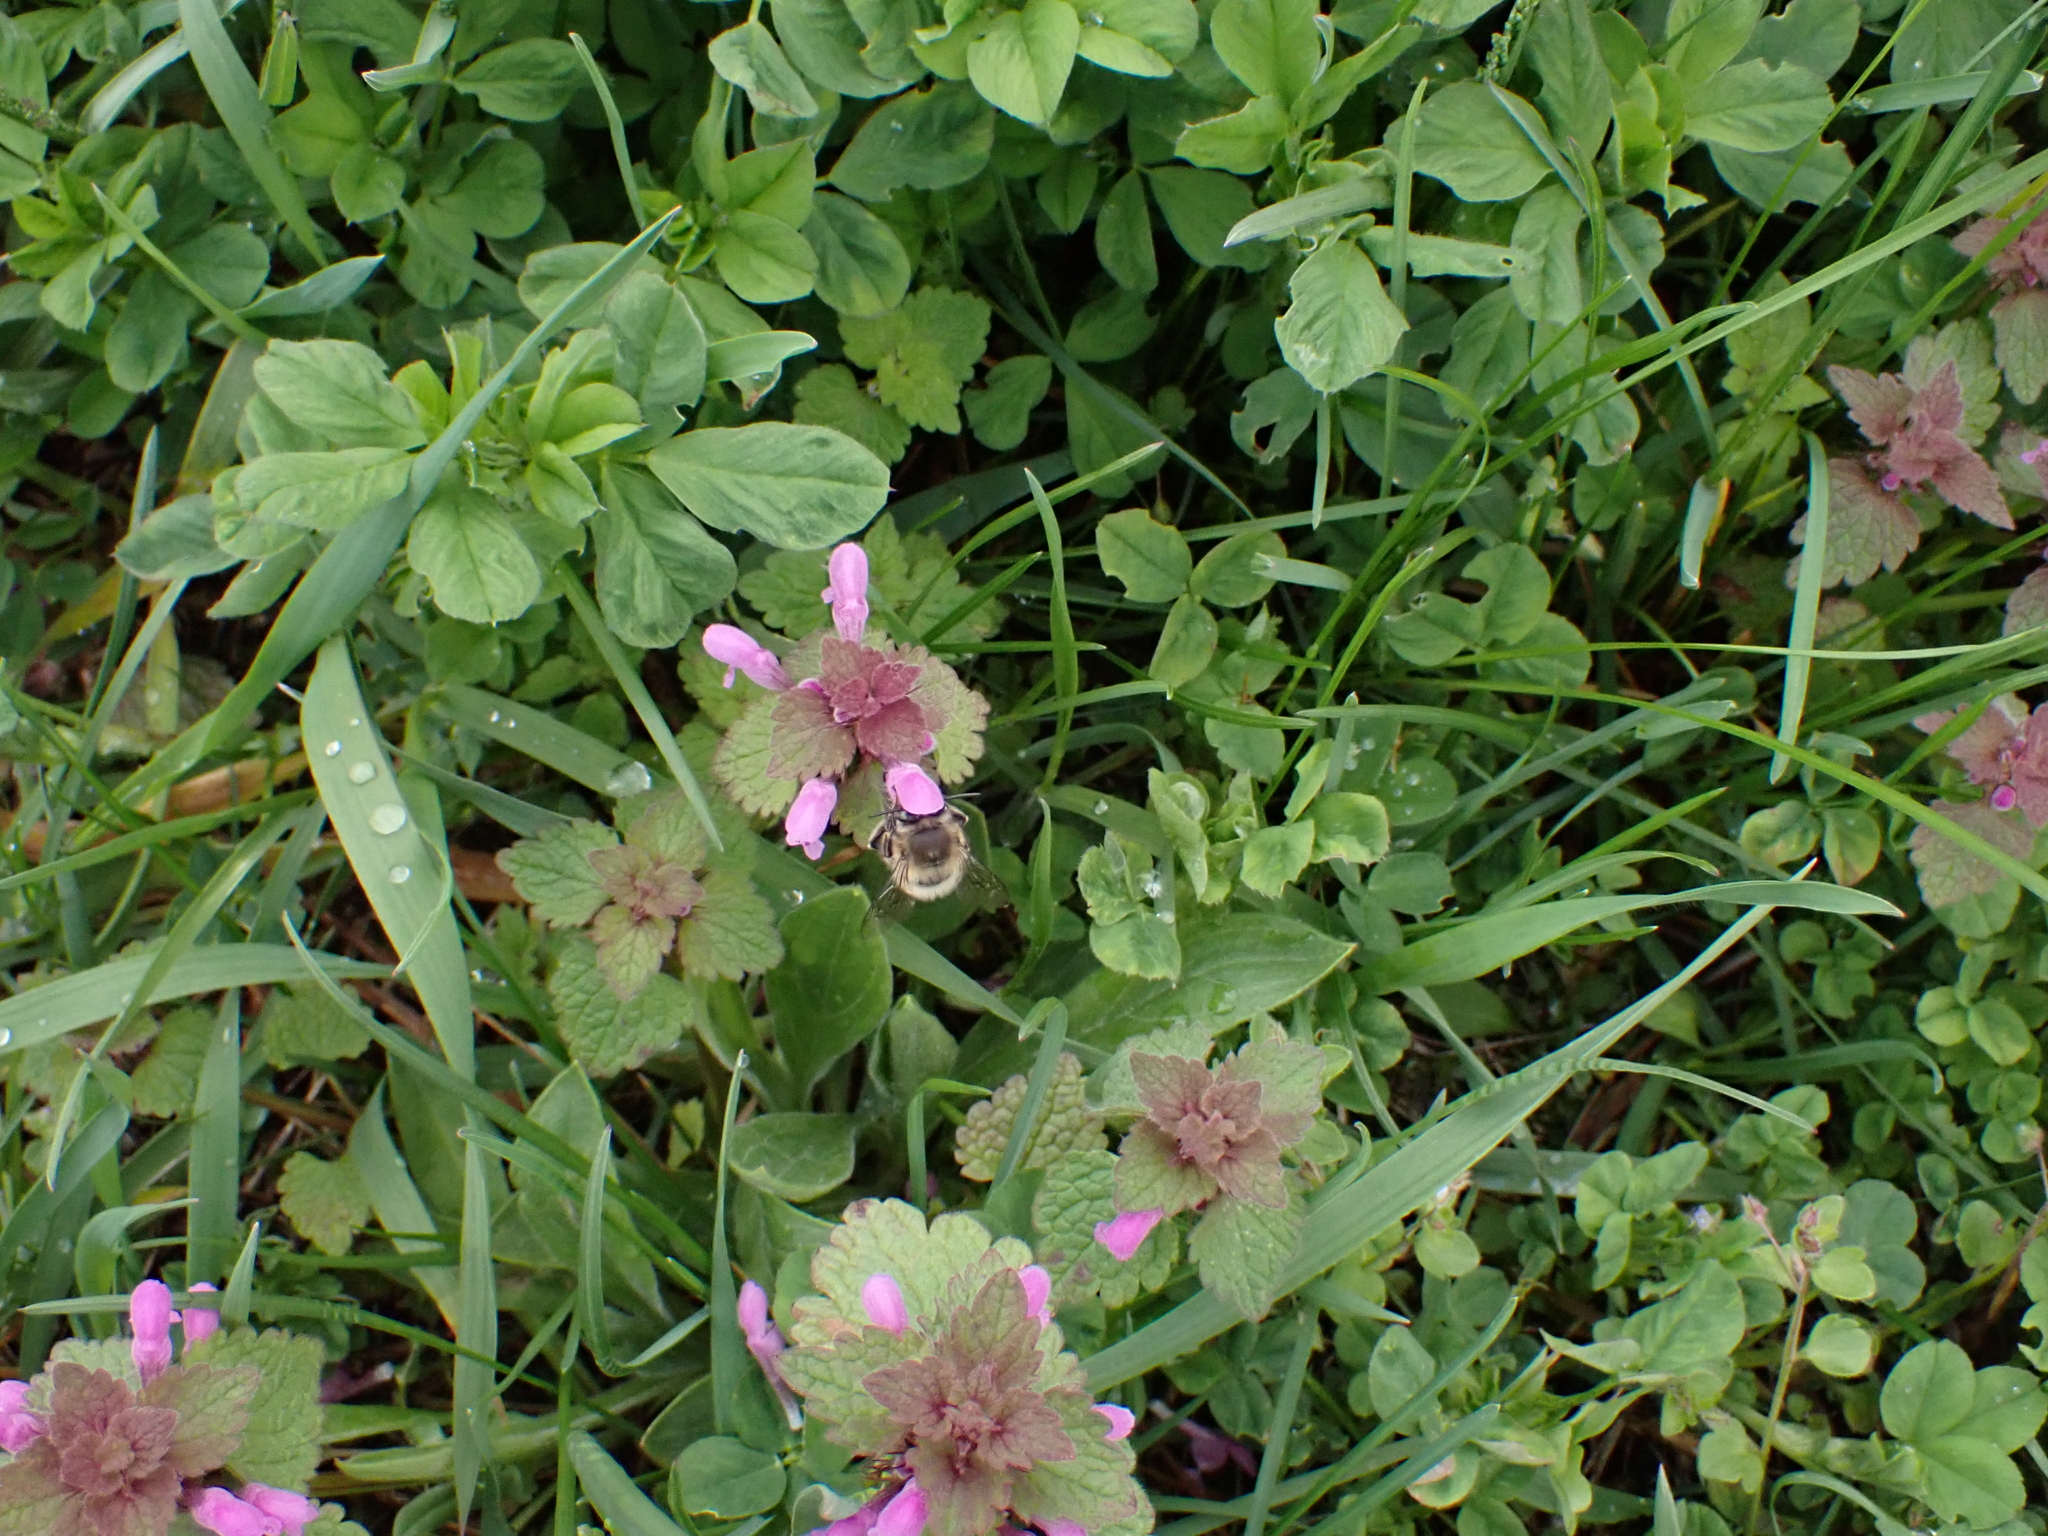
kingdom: Animalia
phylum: Arthropoda
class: Insecta
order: Hymenoptera
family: Apidae
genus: Anthophora
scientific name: Anthophora plumipes
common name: Hairy-footed flower bee
